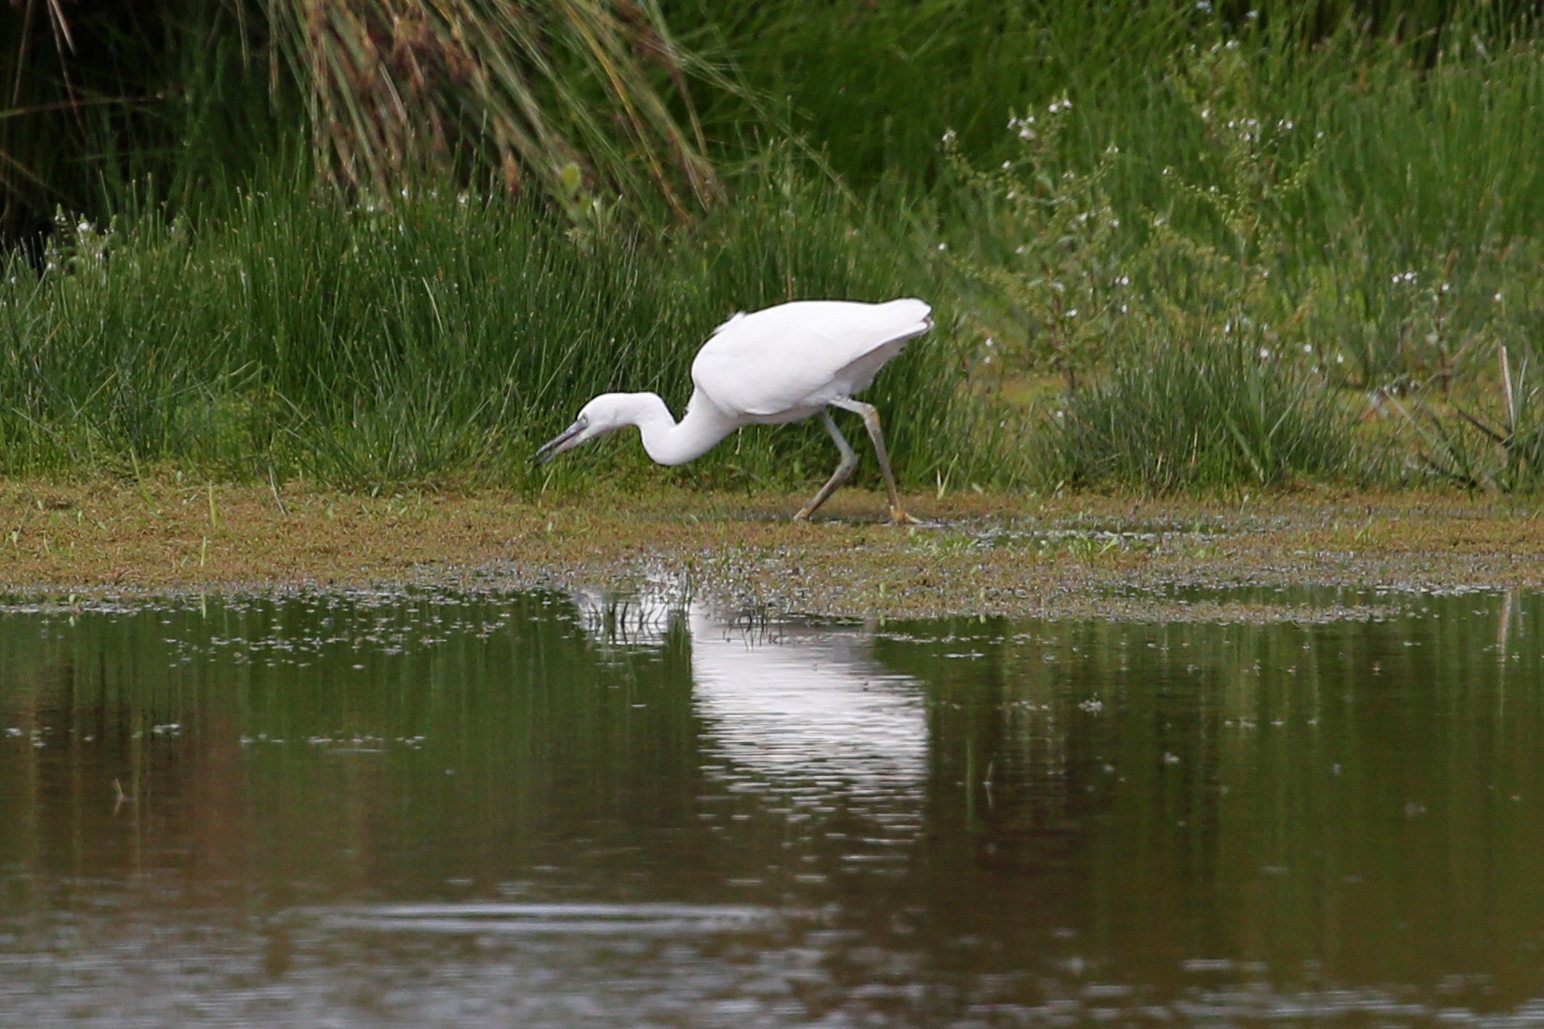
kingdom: Animalia
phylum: Chordata
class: Aves
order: Pelecaniformes
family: Ardeidae
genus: Egretta
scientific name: Egretta garzetta
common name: Little egret
